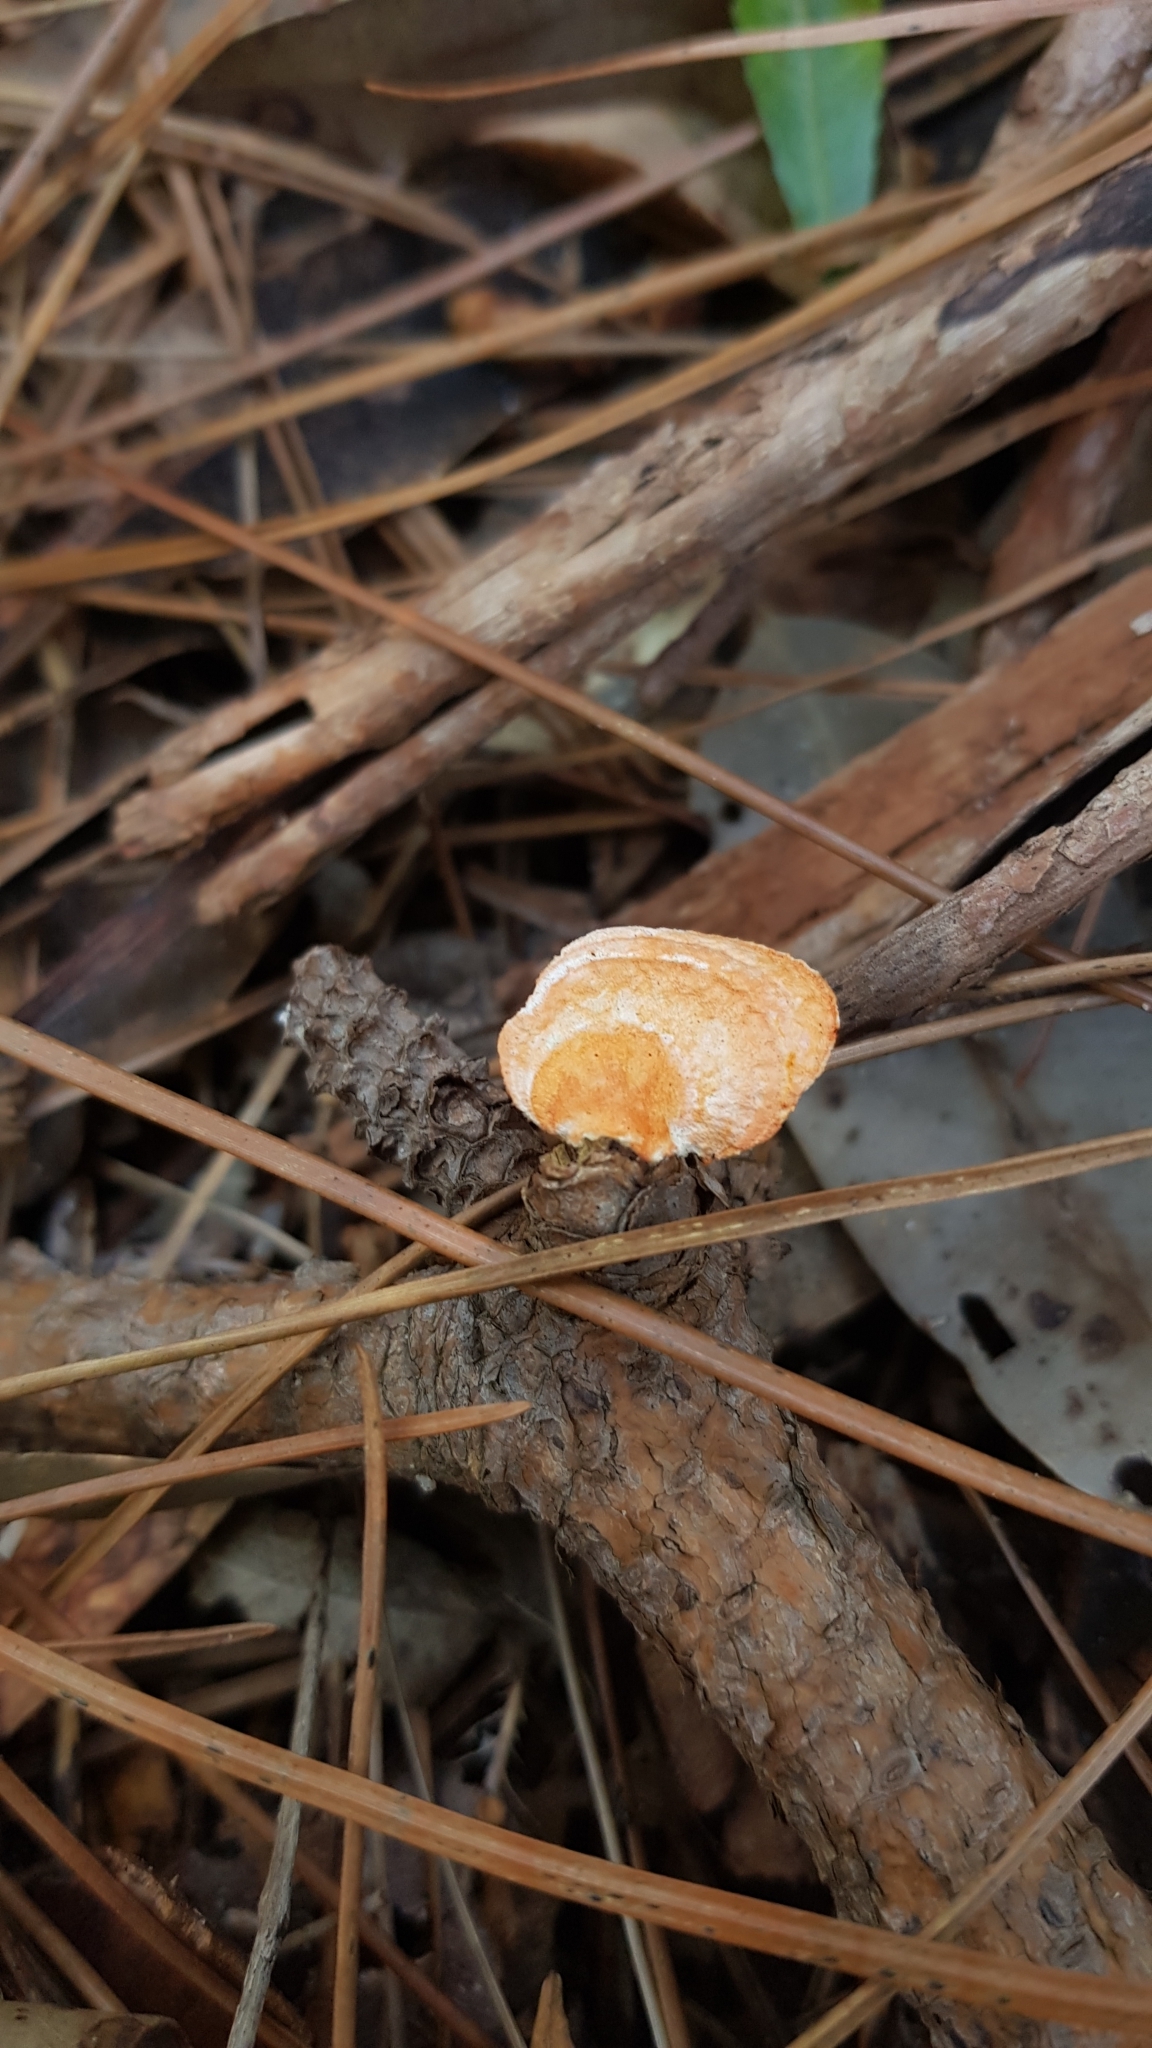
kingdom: Fungi
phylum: Basidiomycota
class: Agaricomycetes
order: Polyporales
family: Polyporaceae
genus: Trametes
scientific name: Trametes coccinea
